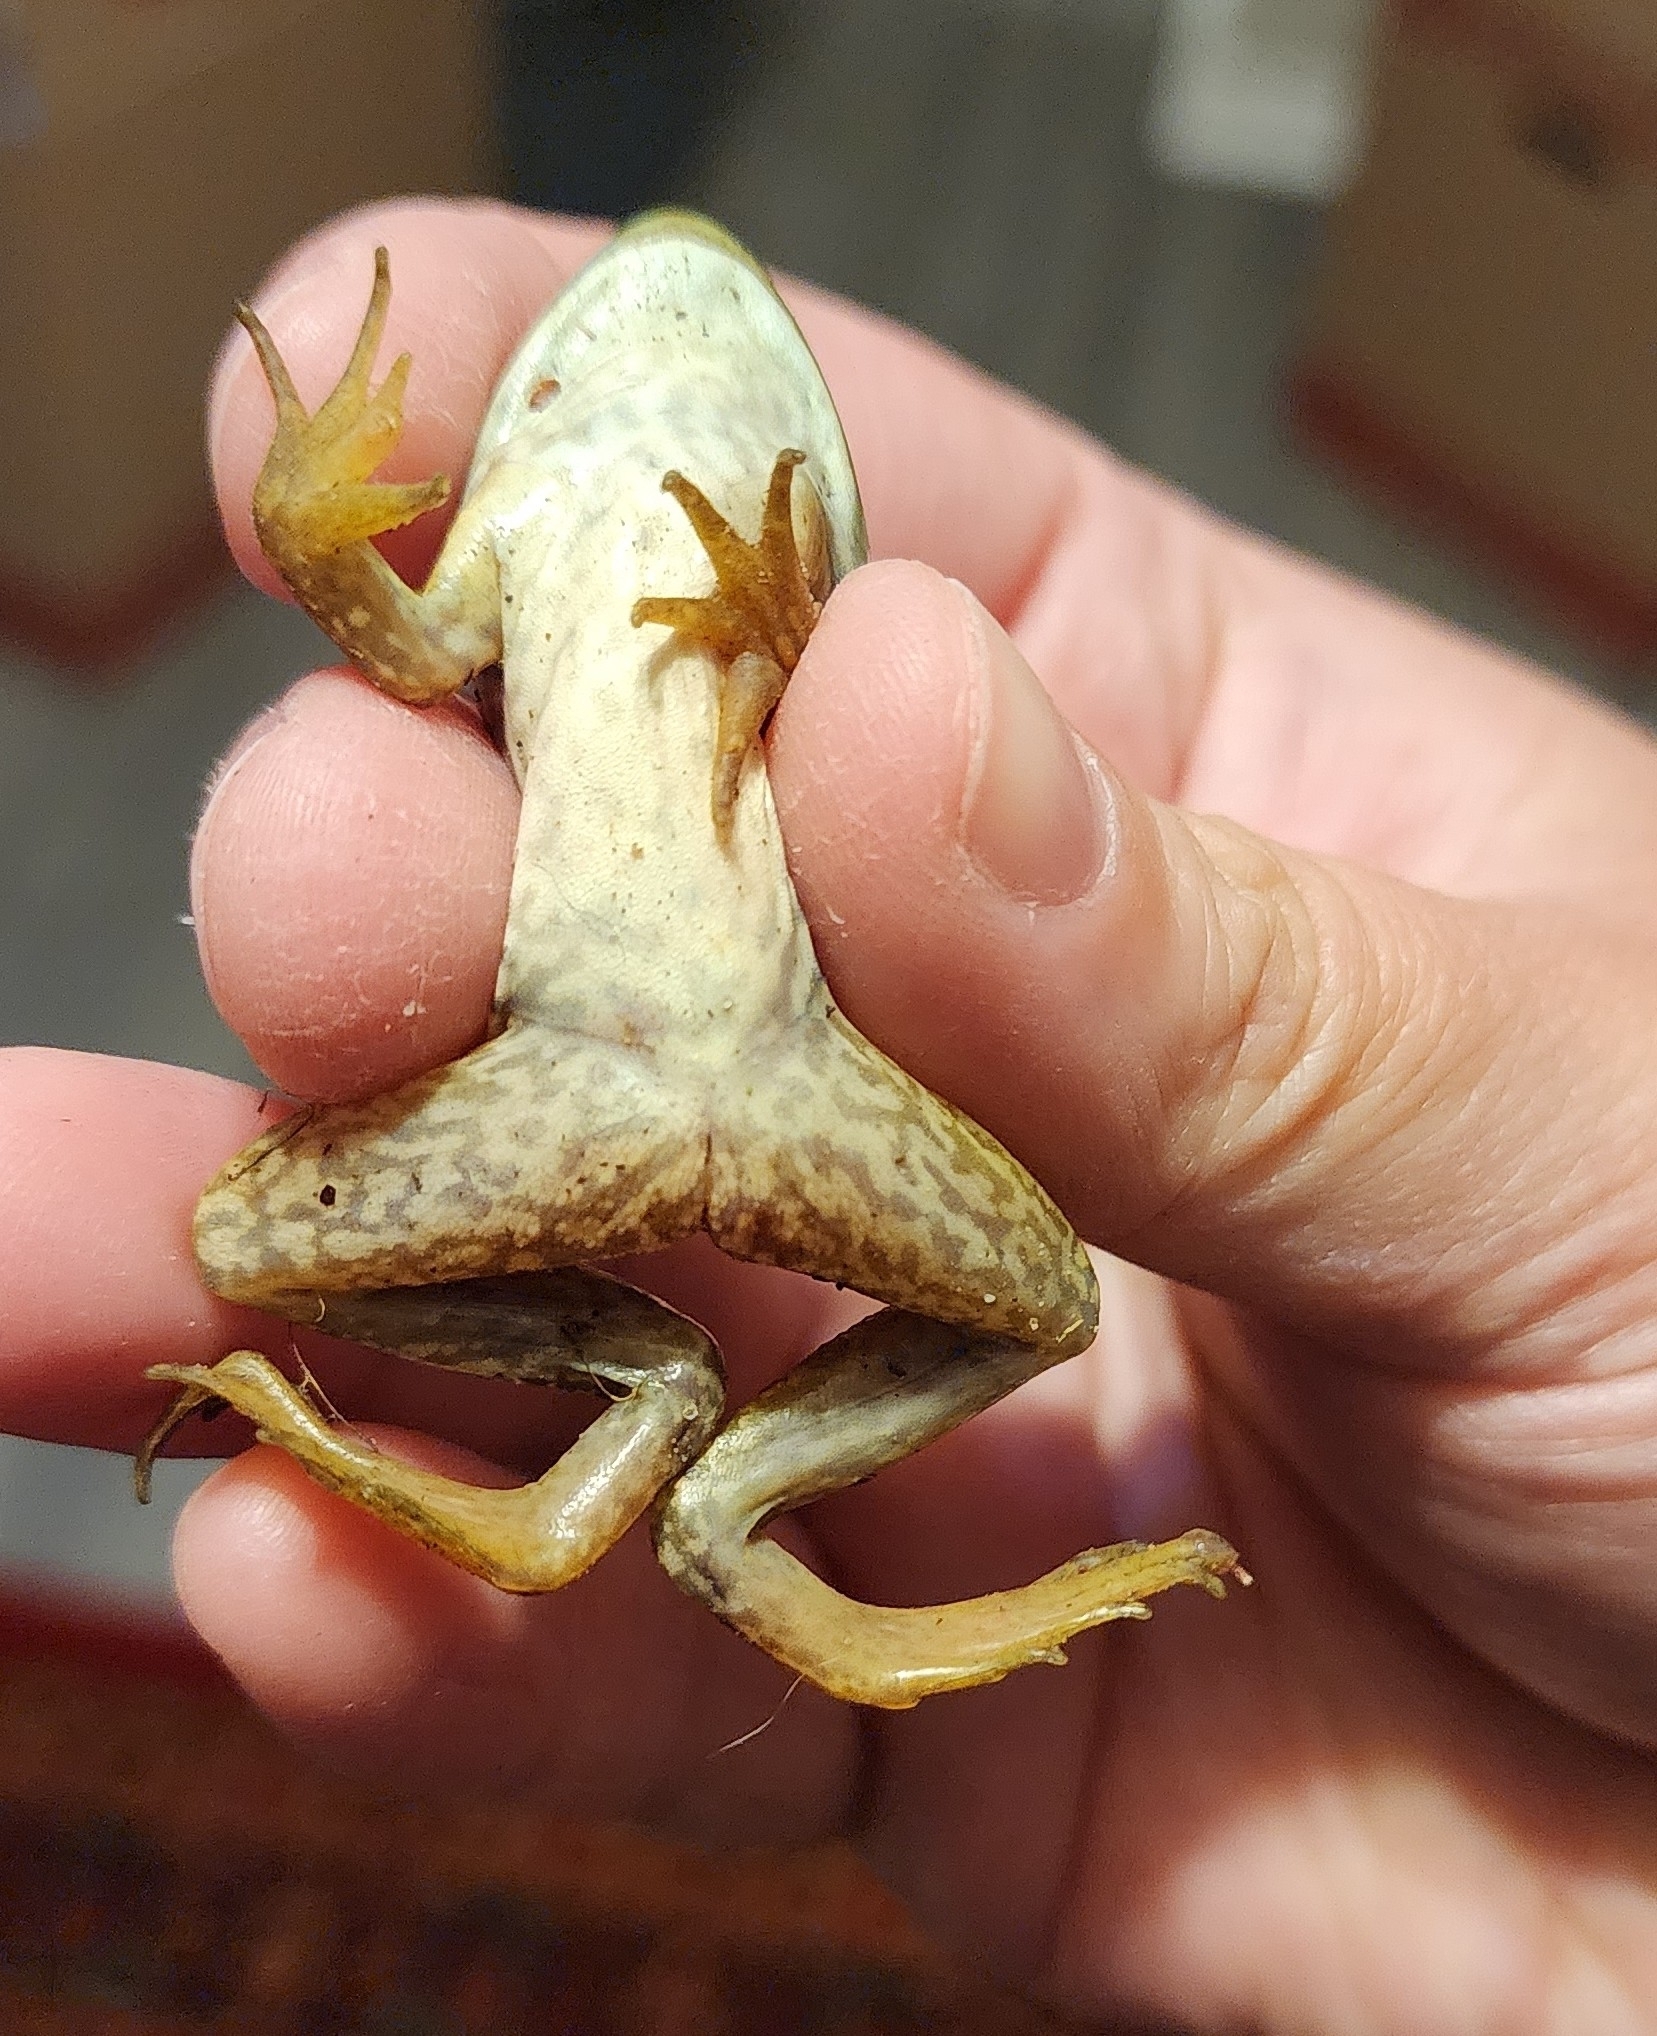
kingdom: Animalia
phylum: Chordata
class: Amphibia
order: Anura
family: Ranidae
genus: Lithobates
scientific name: Lithobates catesbeianus
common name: American bullfrog
